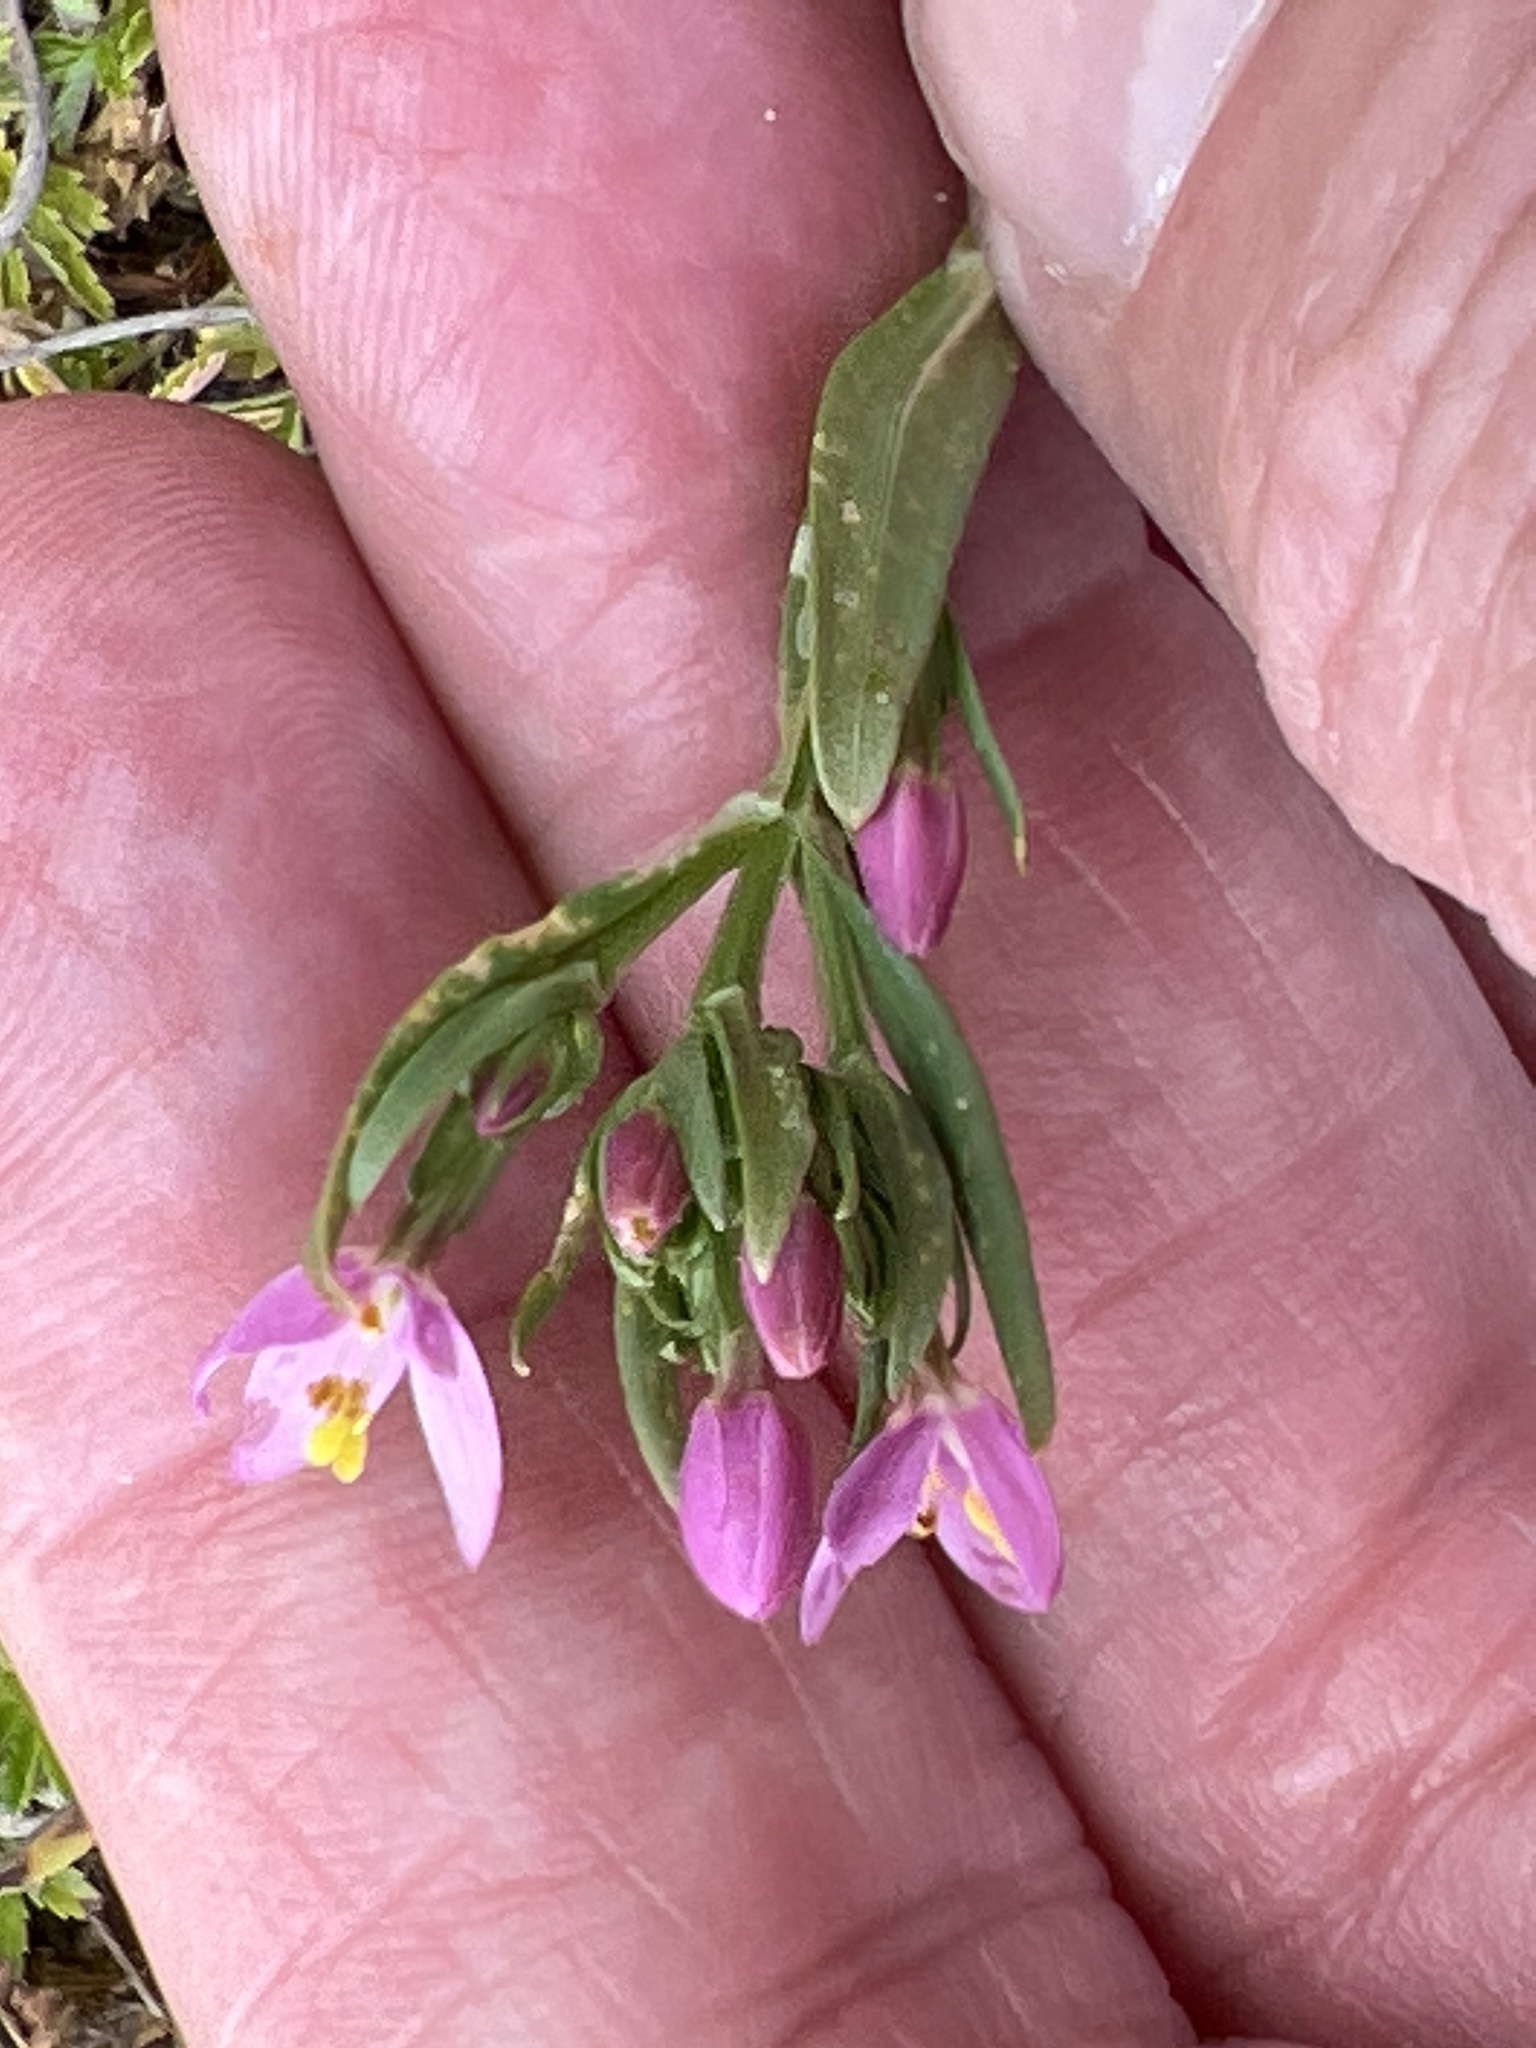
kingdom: Plantae
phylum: Tracheophyta
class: Magnoliopsida
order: Gentianales
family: Gentianaceae
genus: Centaurium
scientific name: Centaurium erythraea
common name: Common centaury
